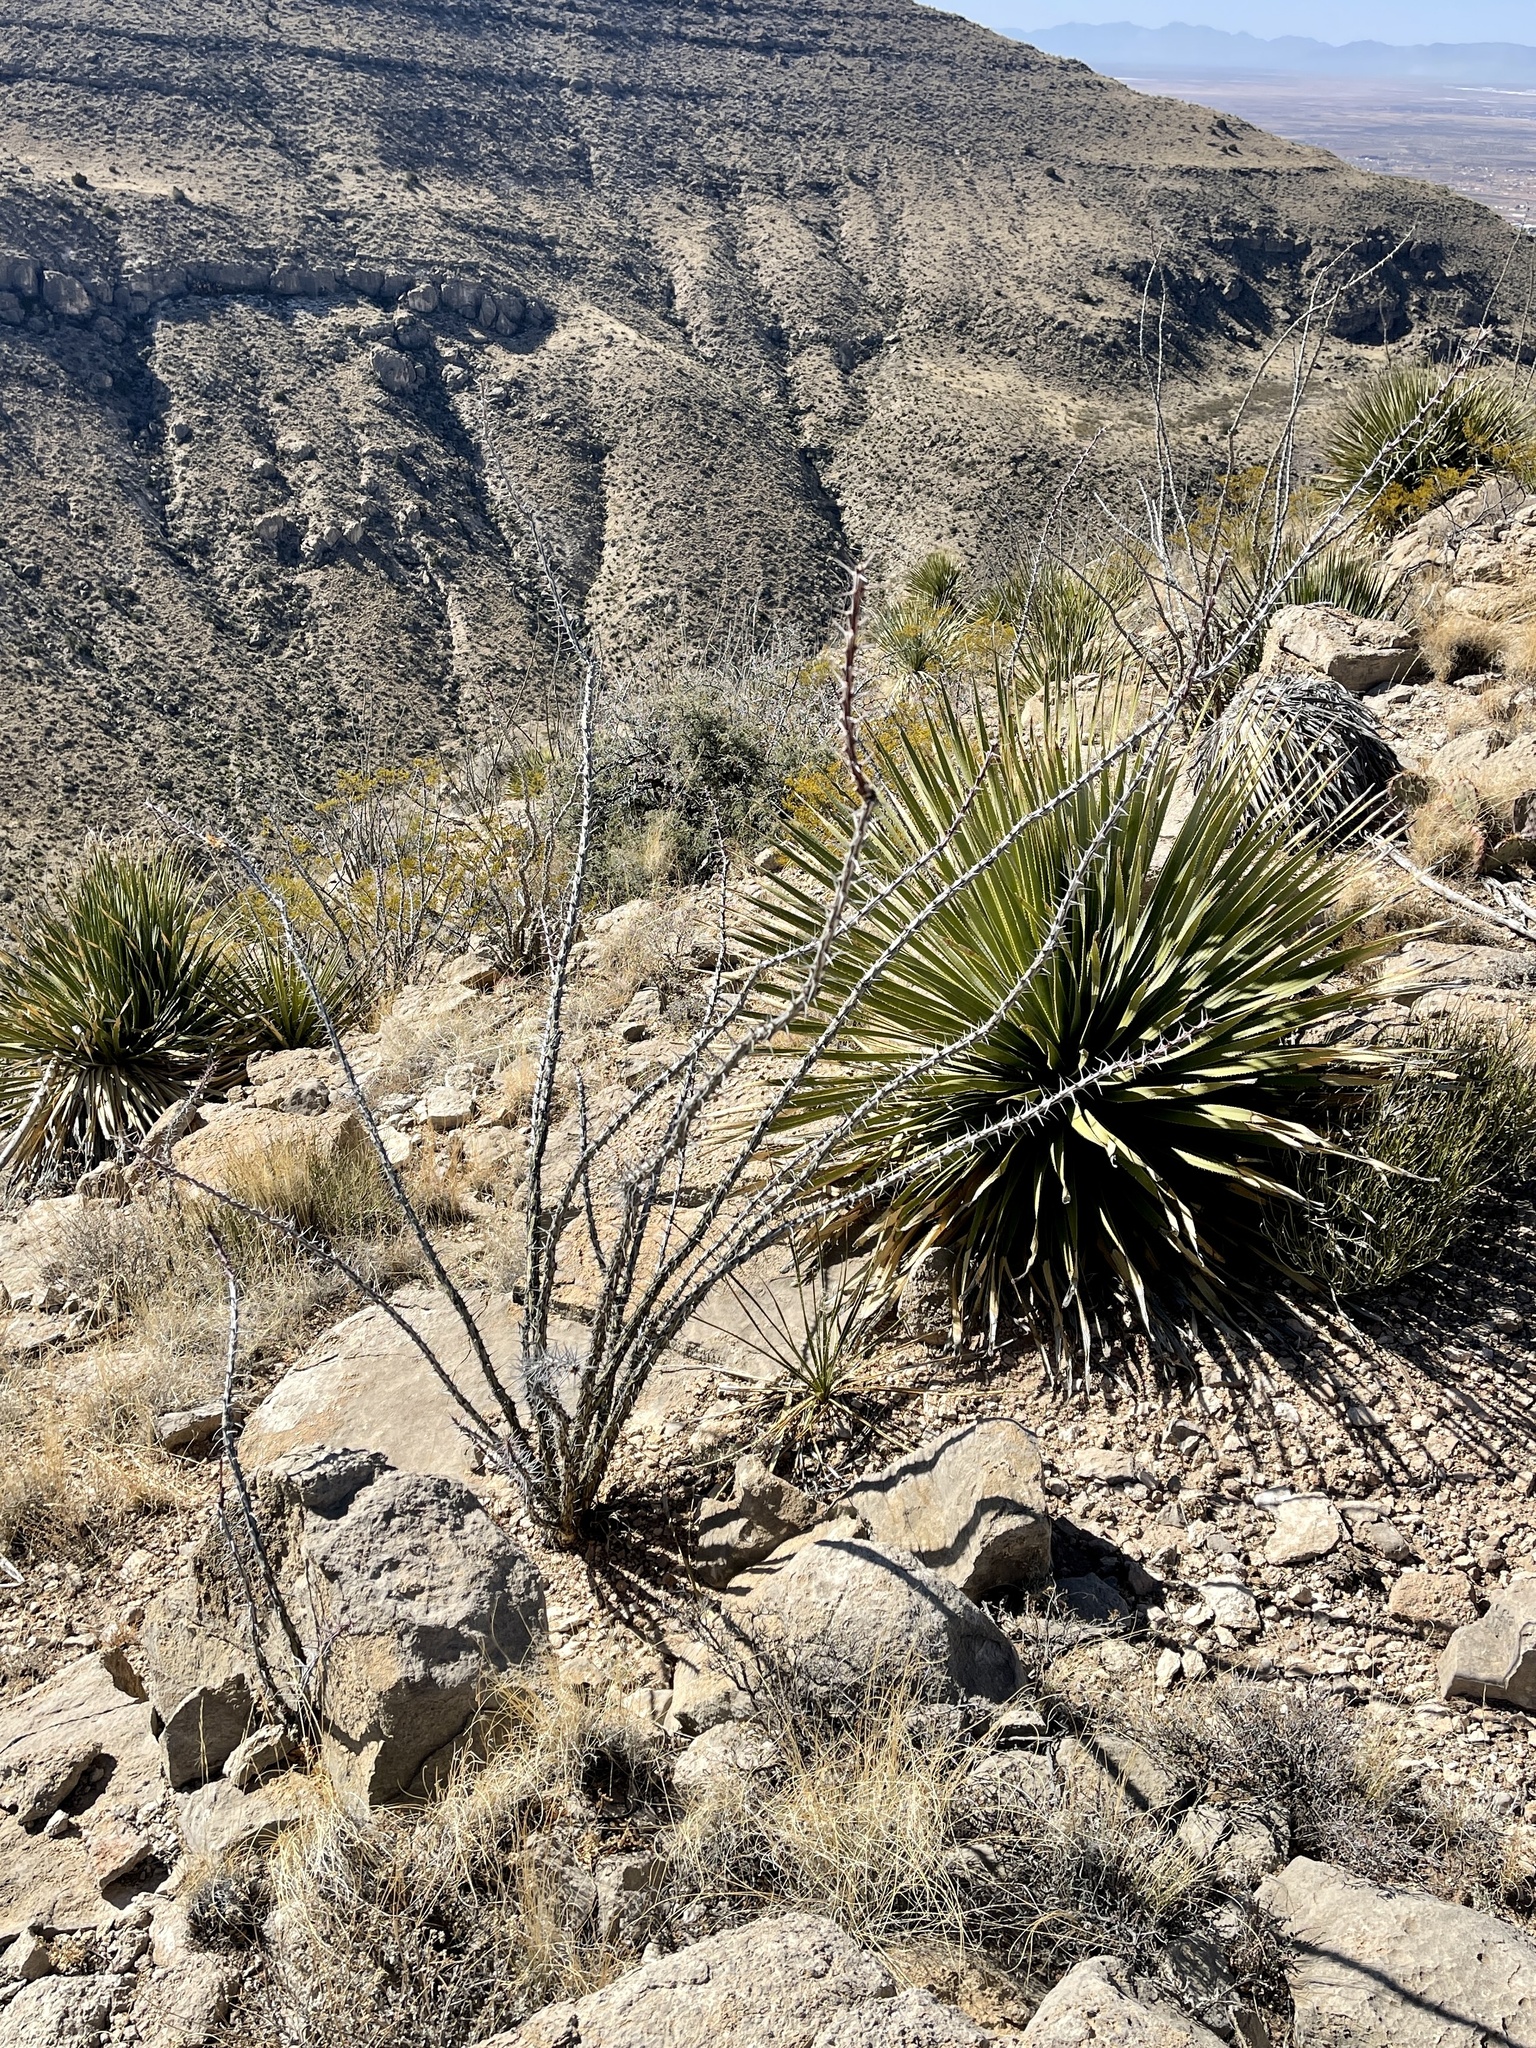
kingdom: Plantae
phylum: Tracheophyta
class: Magnoliopsida
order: Ericales
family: Fouquieriaceae
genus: Fouquieria
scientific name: Fouquieria splendens
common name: Vine-cactus
